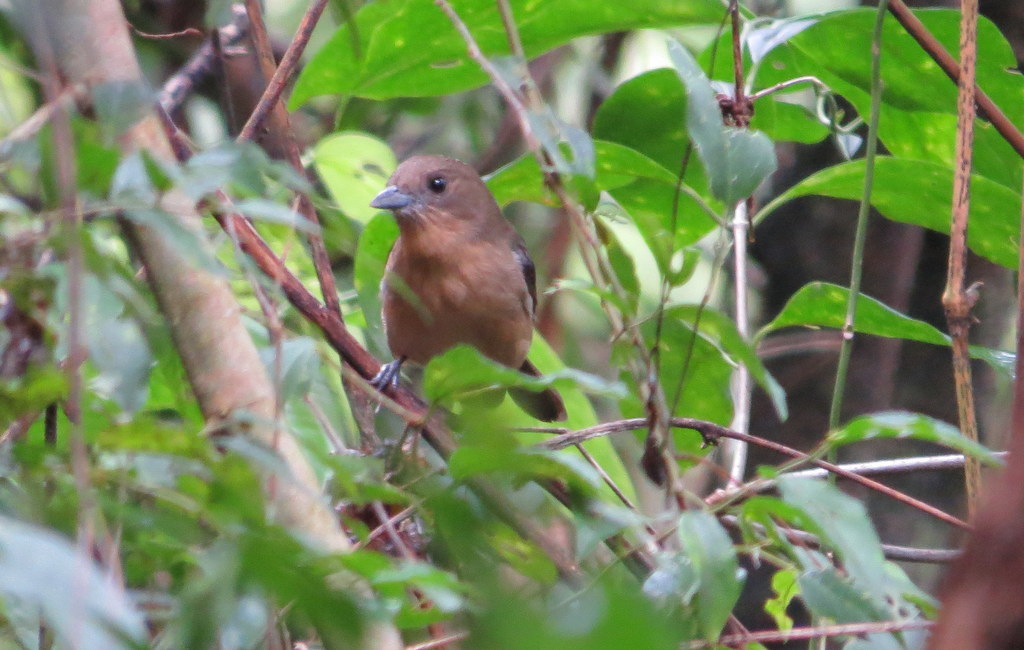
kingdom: Animalia
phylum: Chordata
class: Aves
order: Passeriformes
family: Thraupidae
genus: Trichothraupis
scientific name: Trichothraupis melanops
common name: Black-goggled tanager
